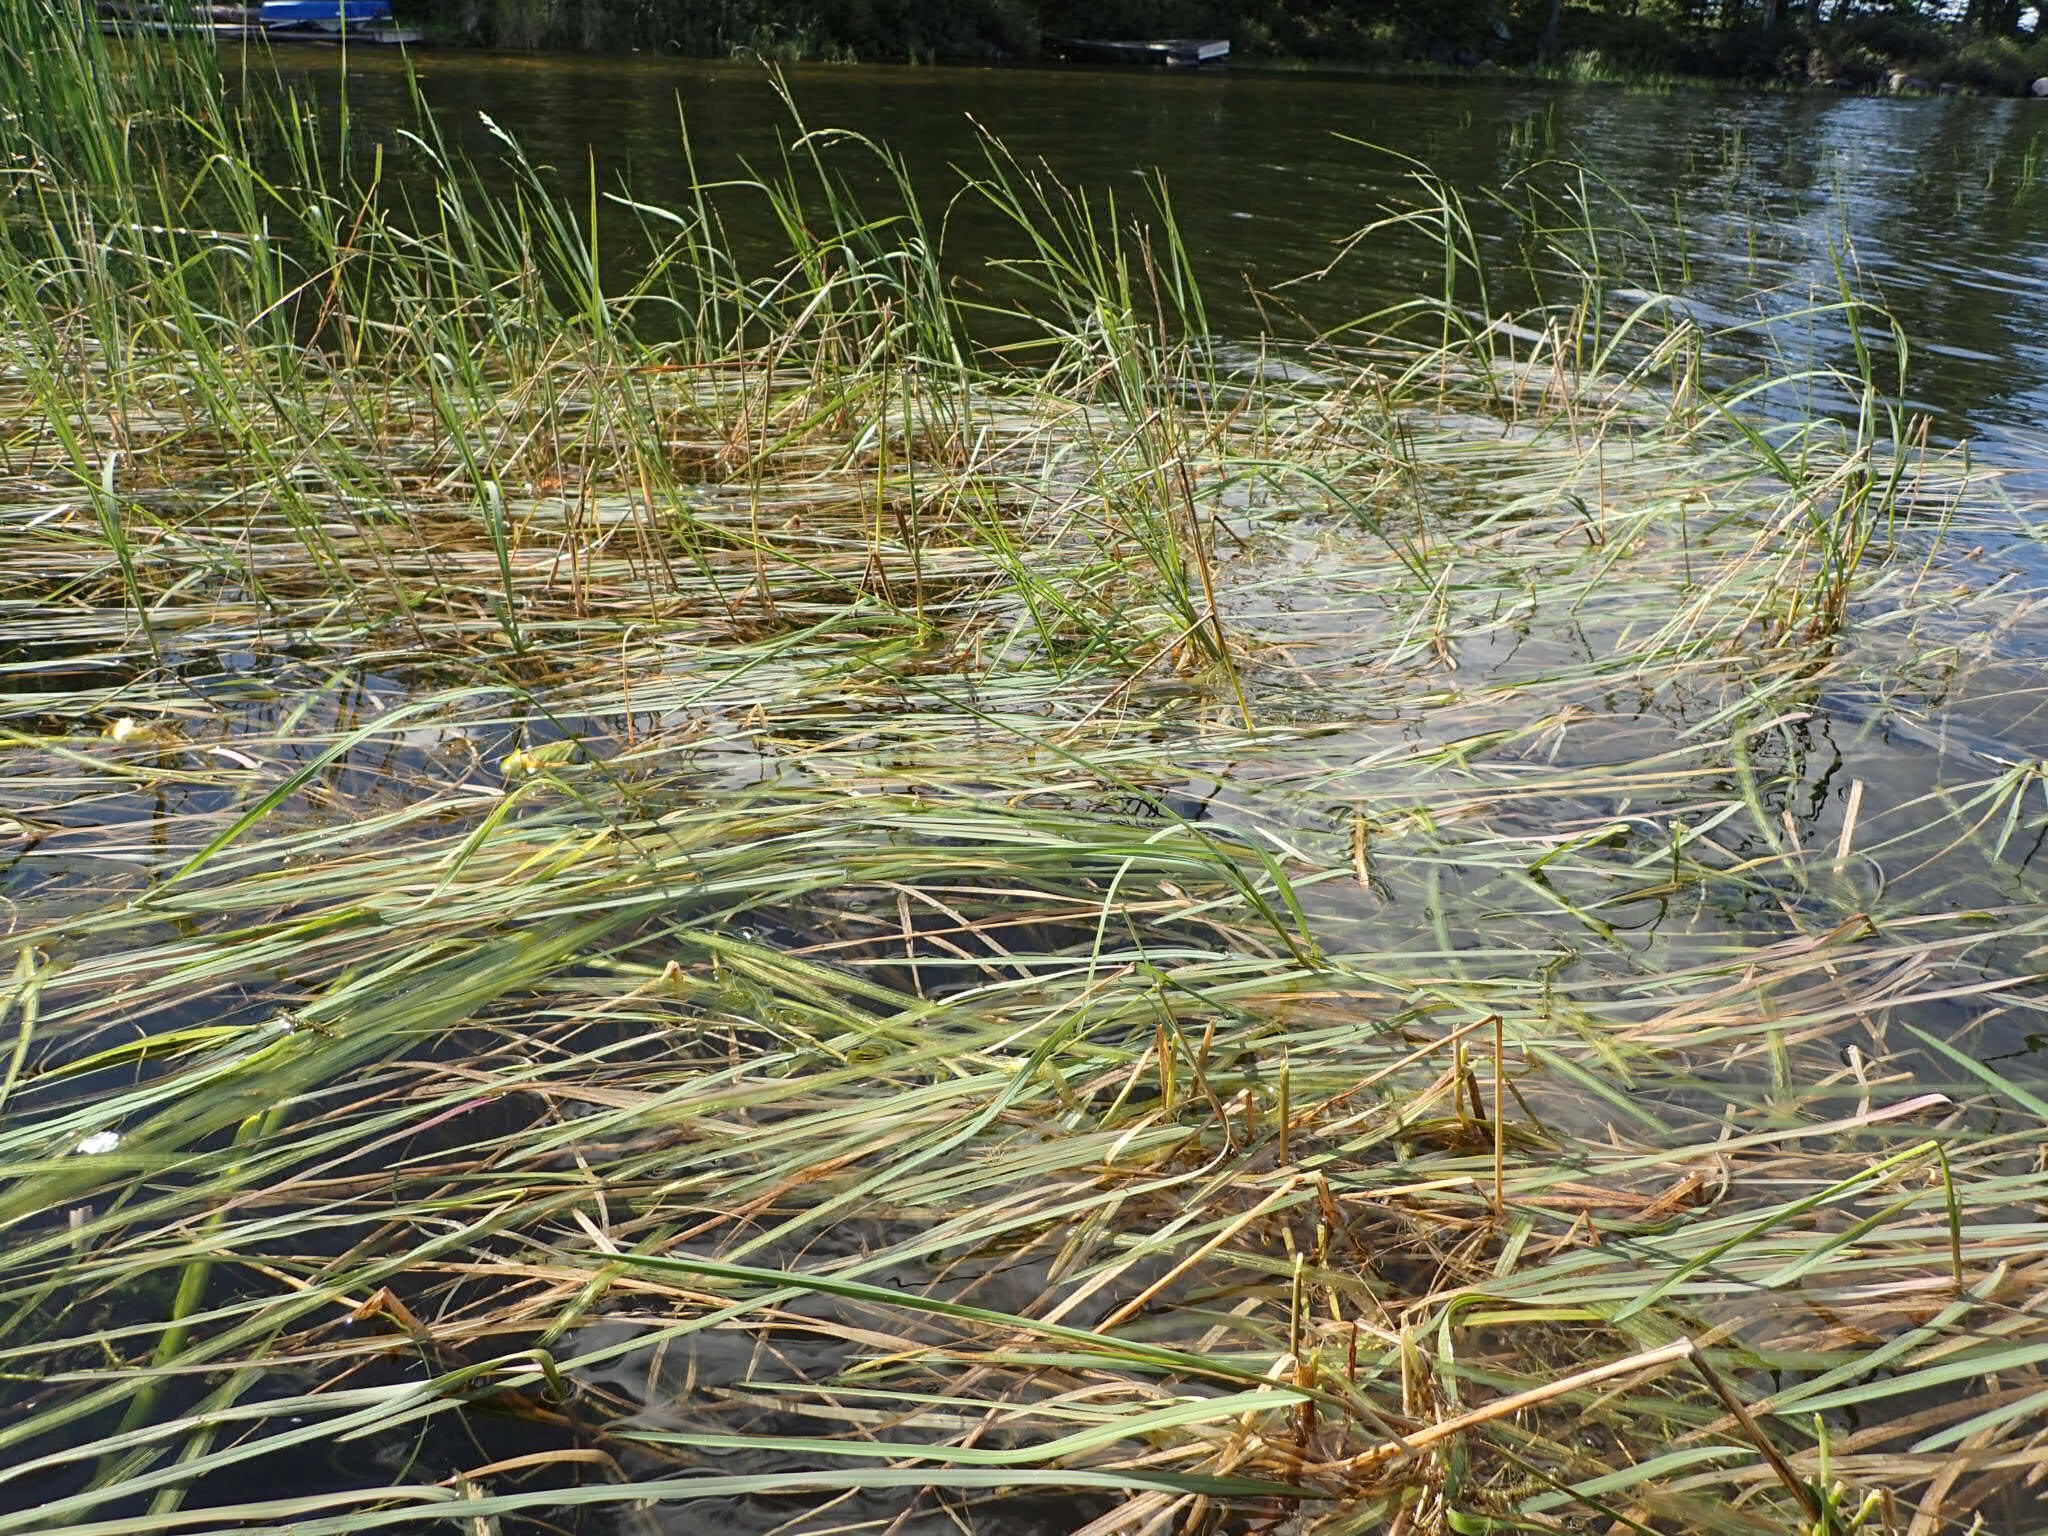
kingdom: Plantae
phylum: Tracheophyta
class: Liliopsida
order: Poales
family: Poaceae
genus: Glyceria
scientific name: Glyceria borealis
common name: Boreal glyceria
